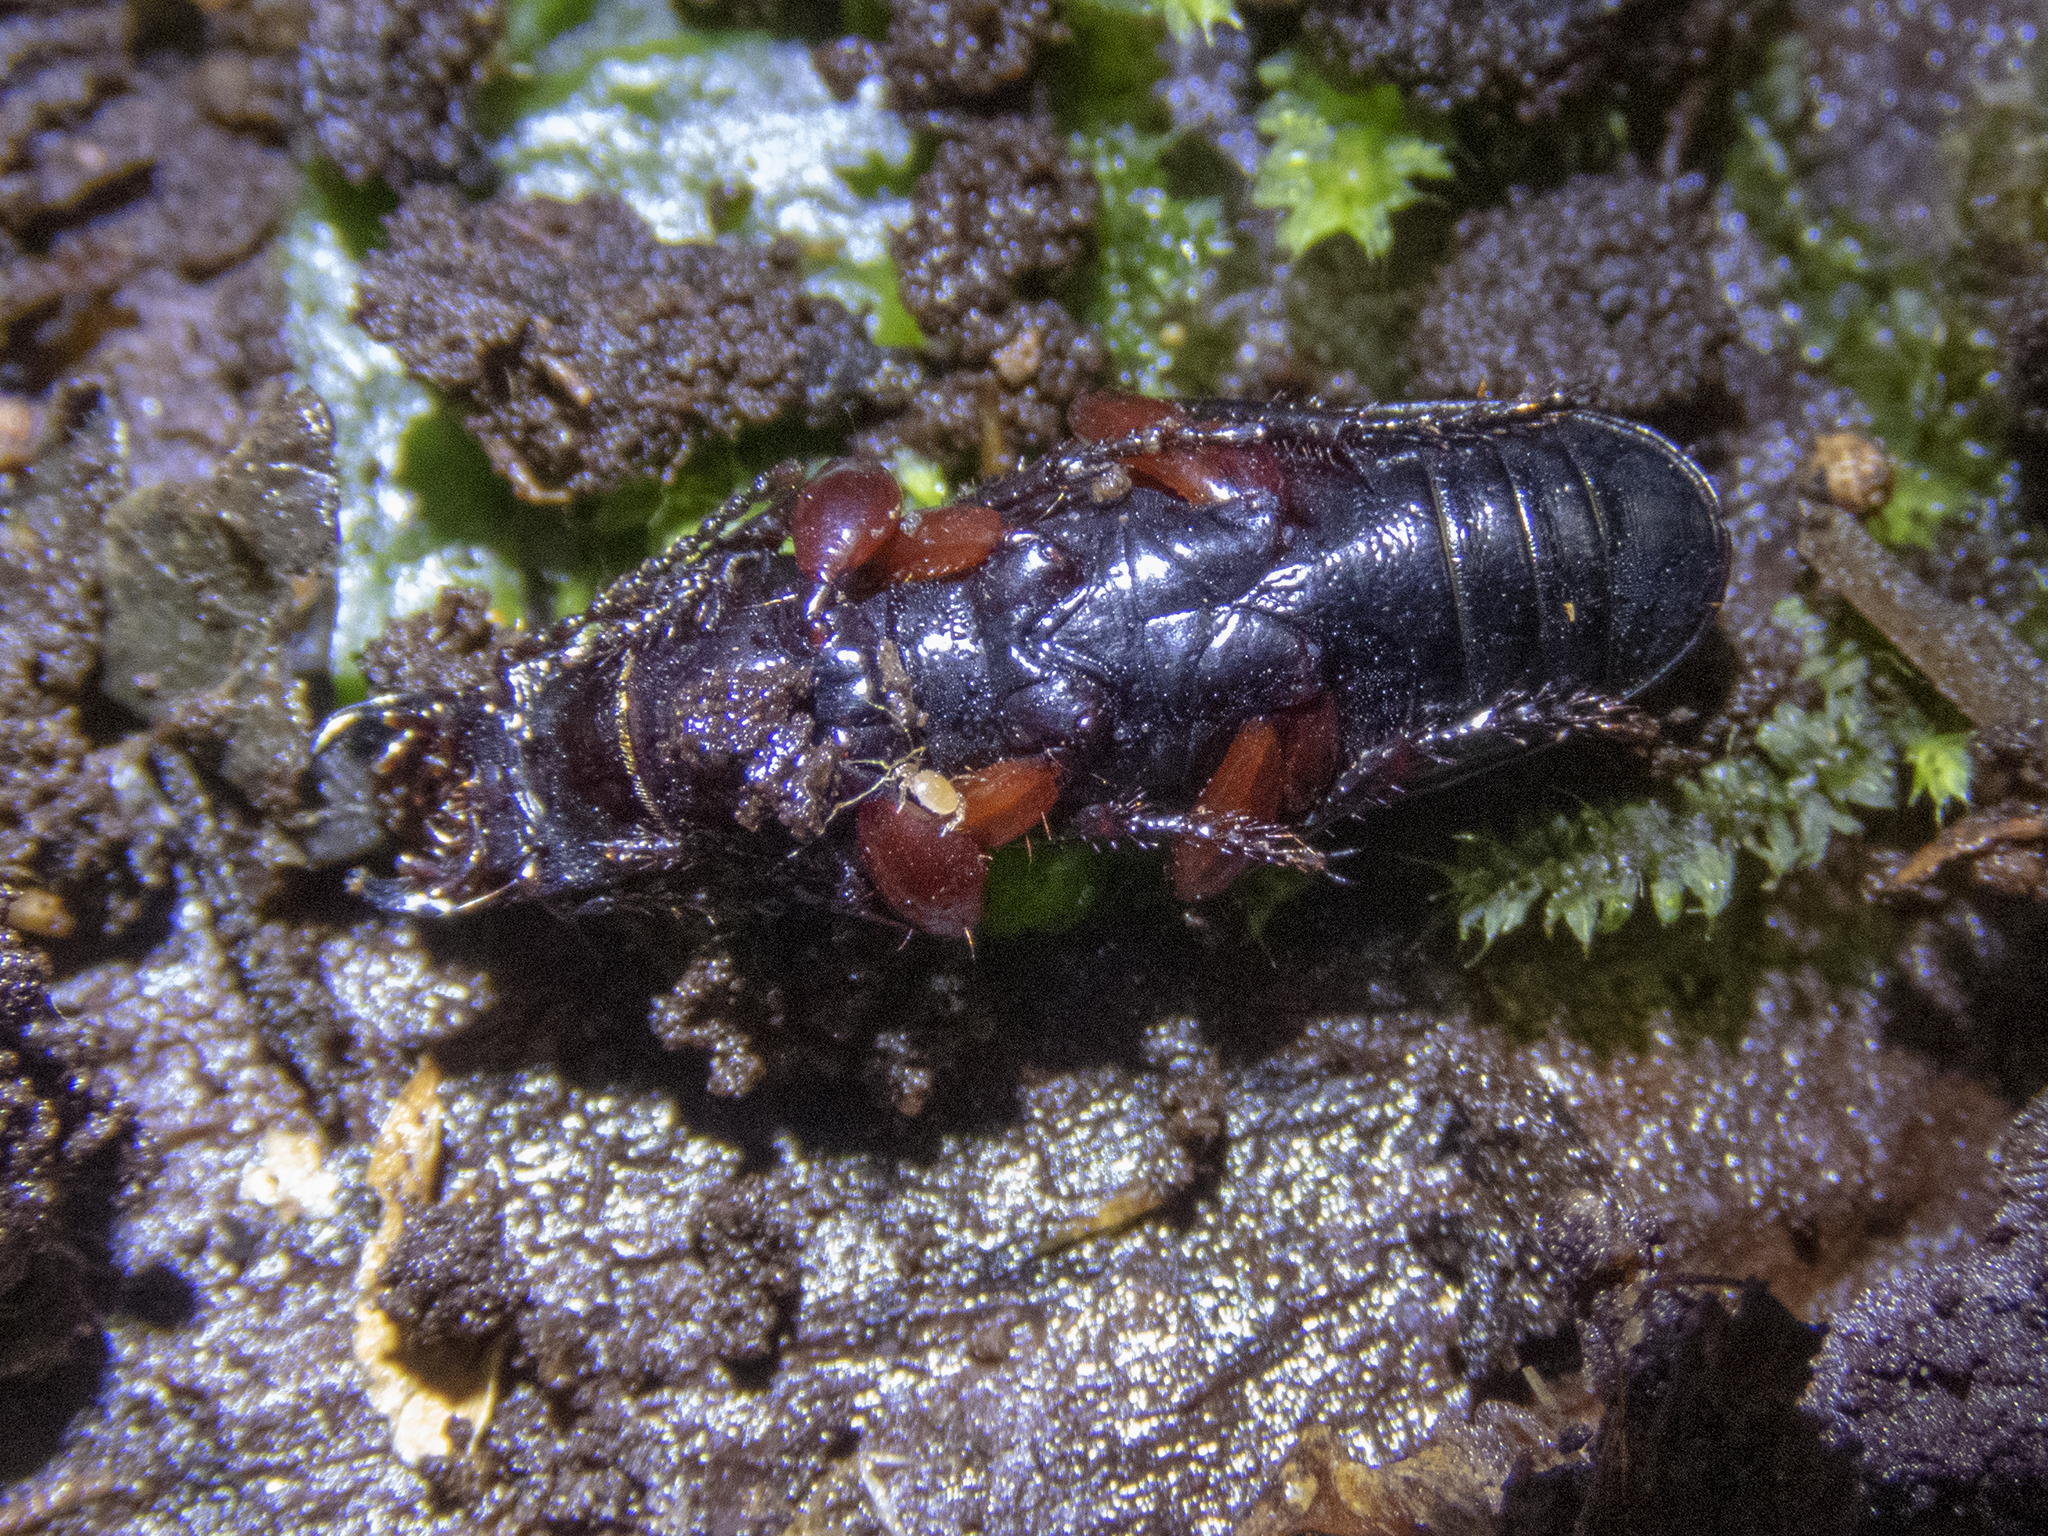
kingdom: Animalia
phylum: Arthropoda
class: Insecta
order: Coleoptera
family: Carabidae
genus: Mecodema
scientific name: Mecodema rugiceps
